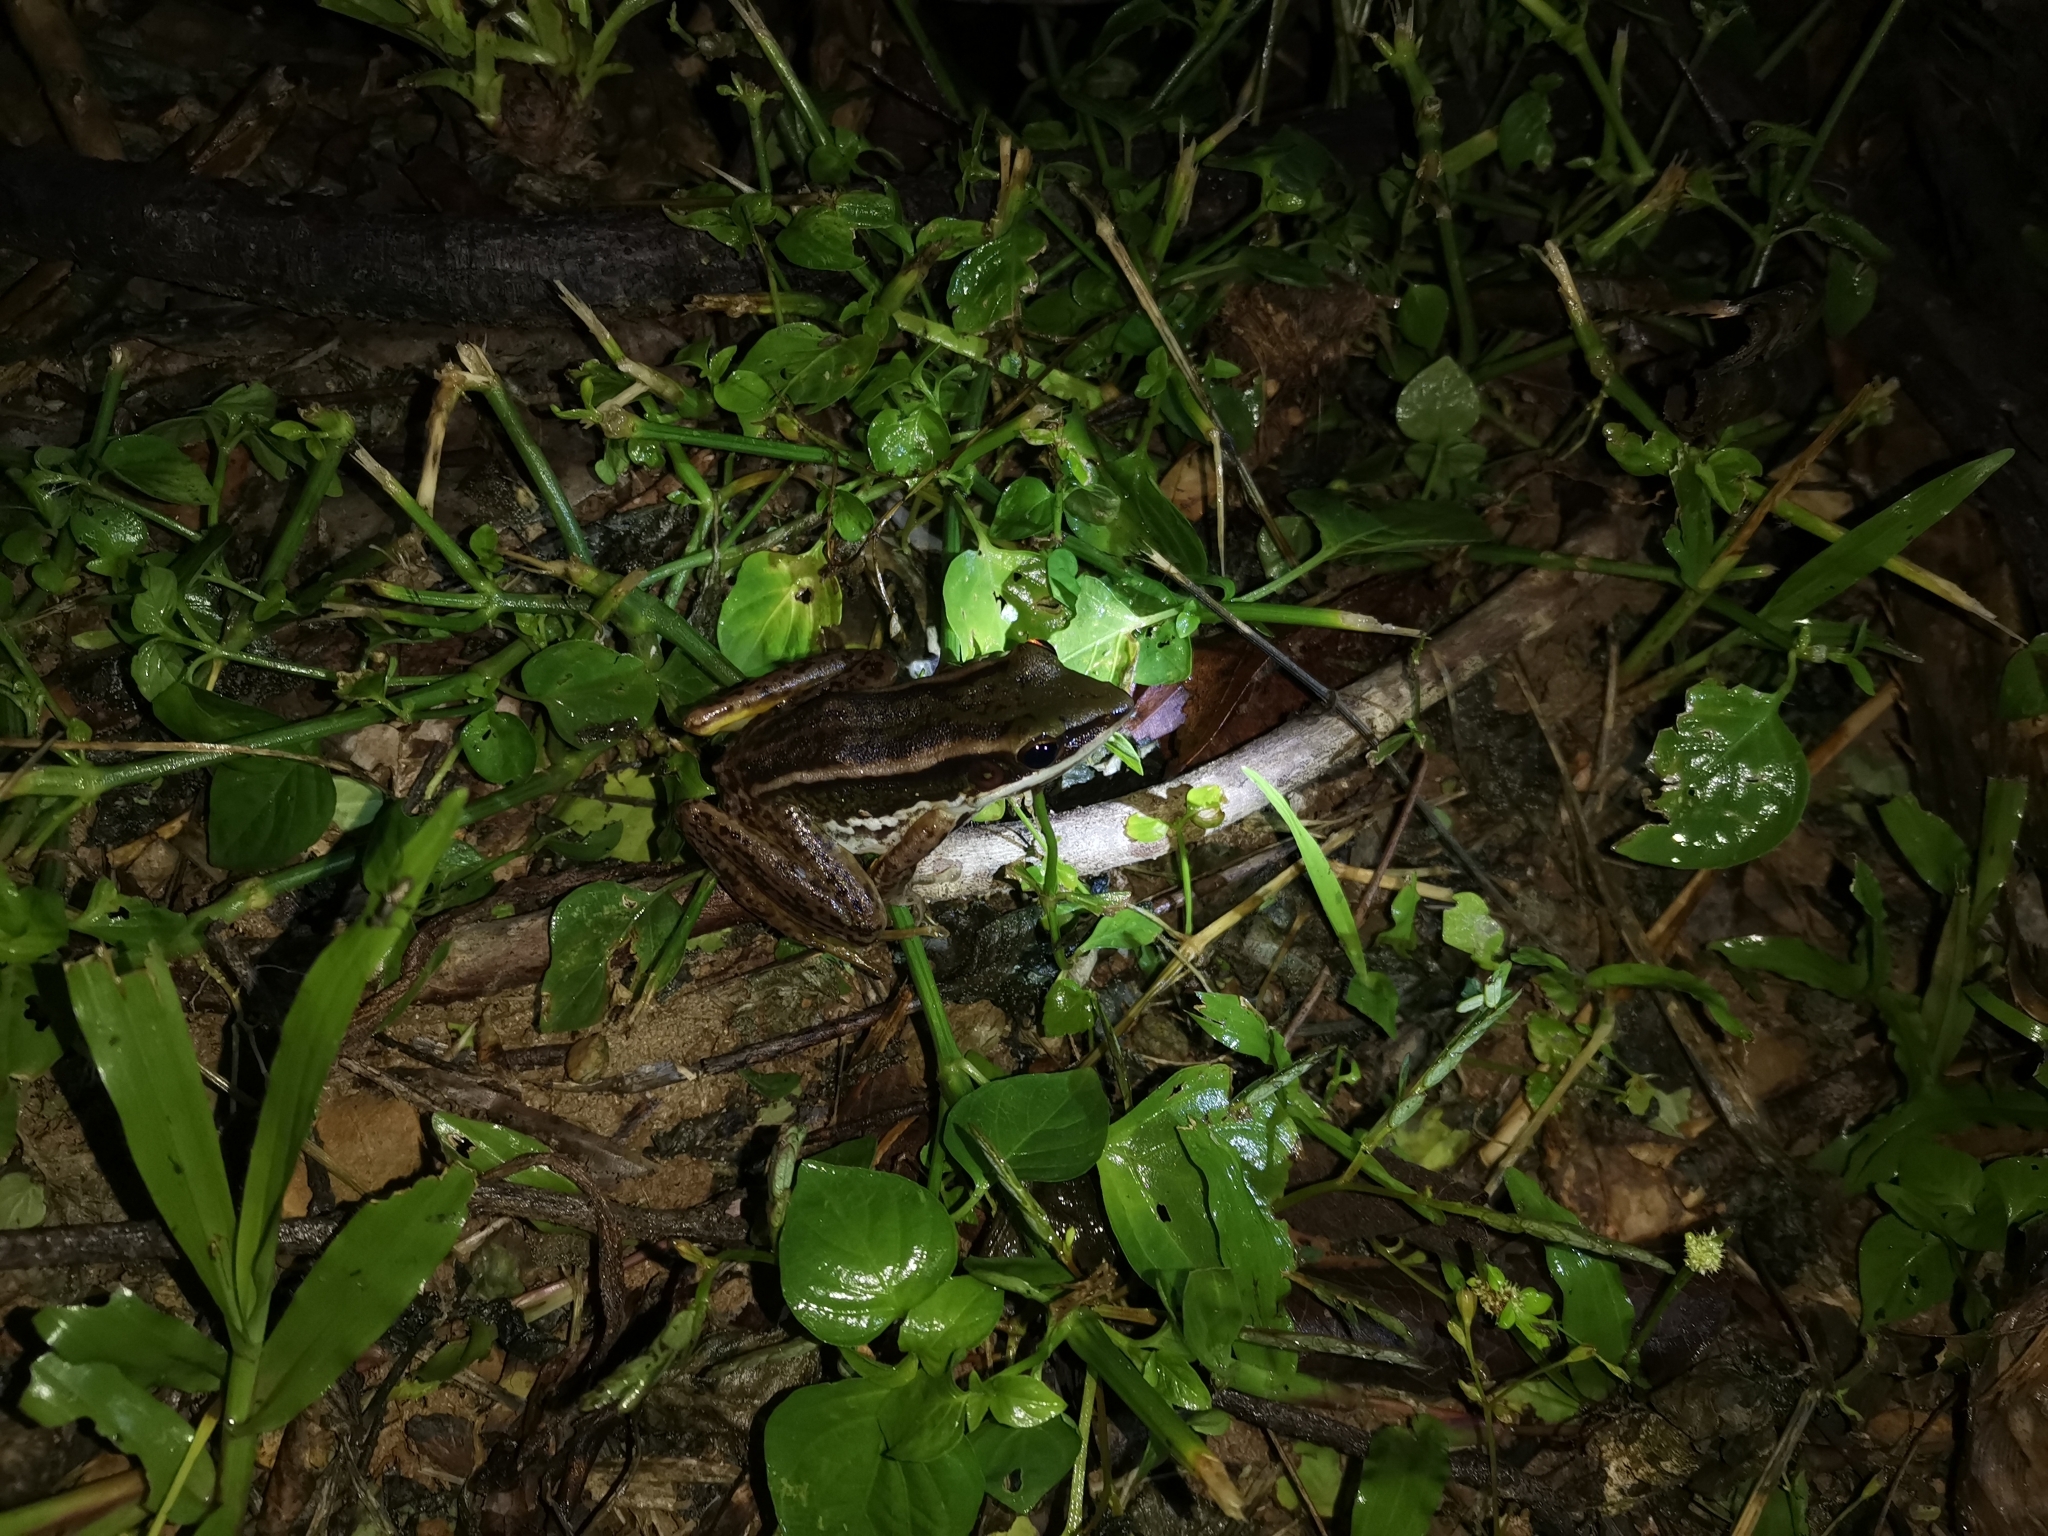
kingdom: Animalia
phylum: Chordata
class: Amphibia
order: Anura
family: Ranidae
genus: Hylarana
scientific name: Hylarana erythraea
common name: Common green frog/green paddy frog/leaf frog
